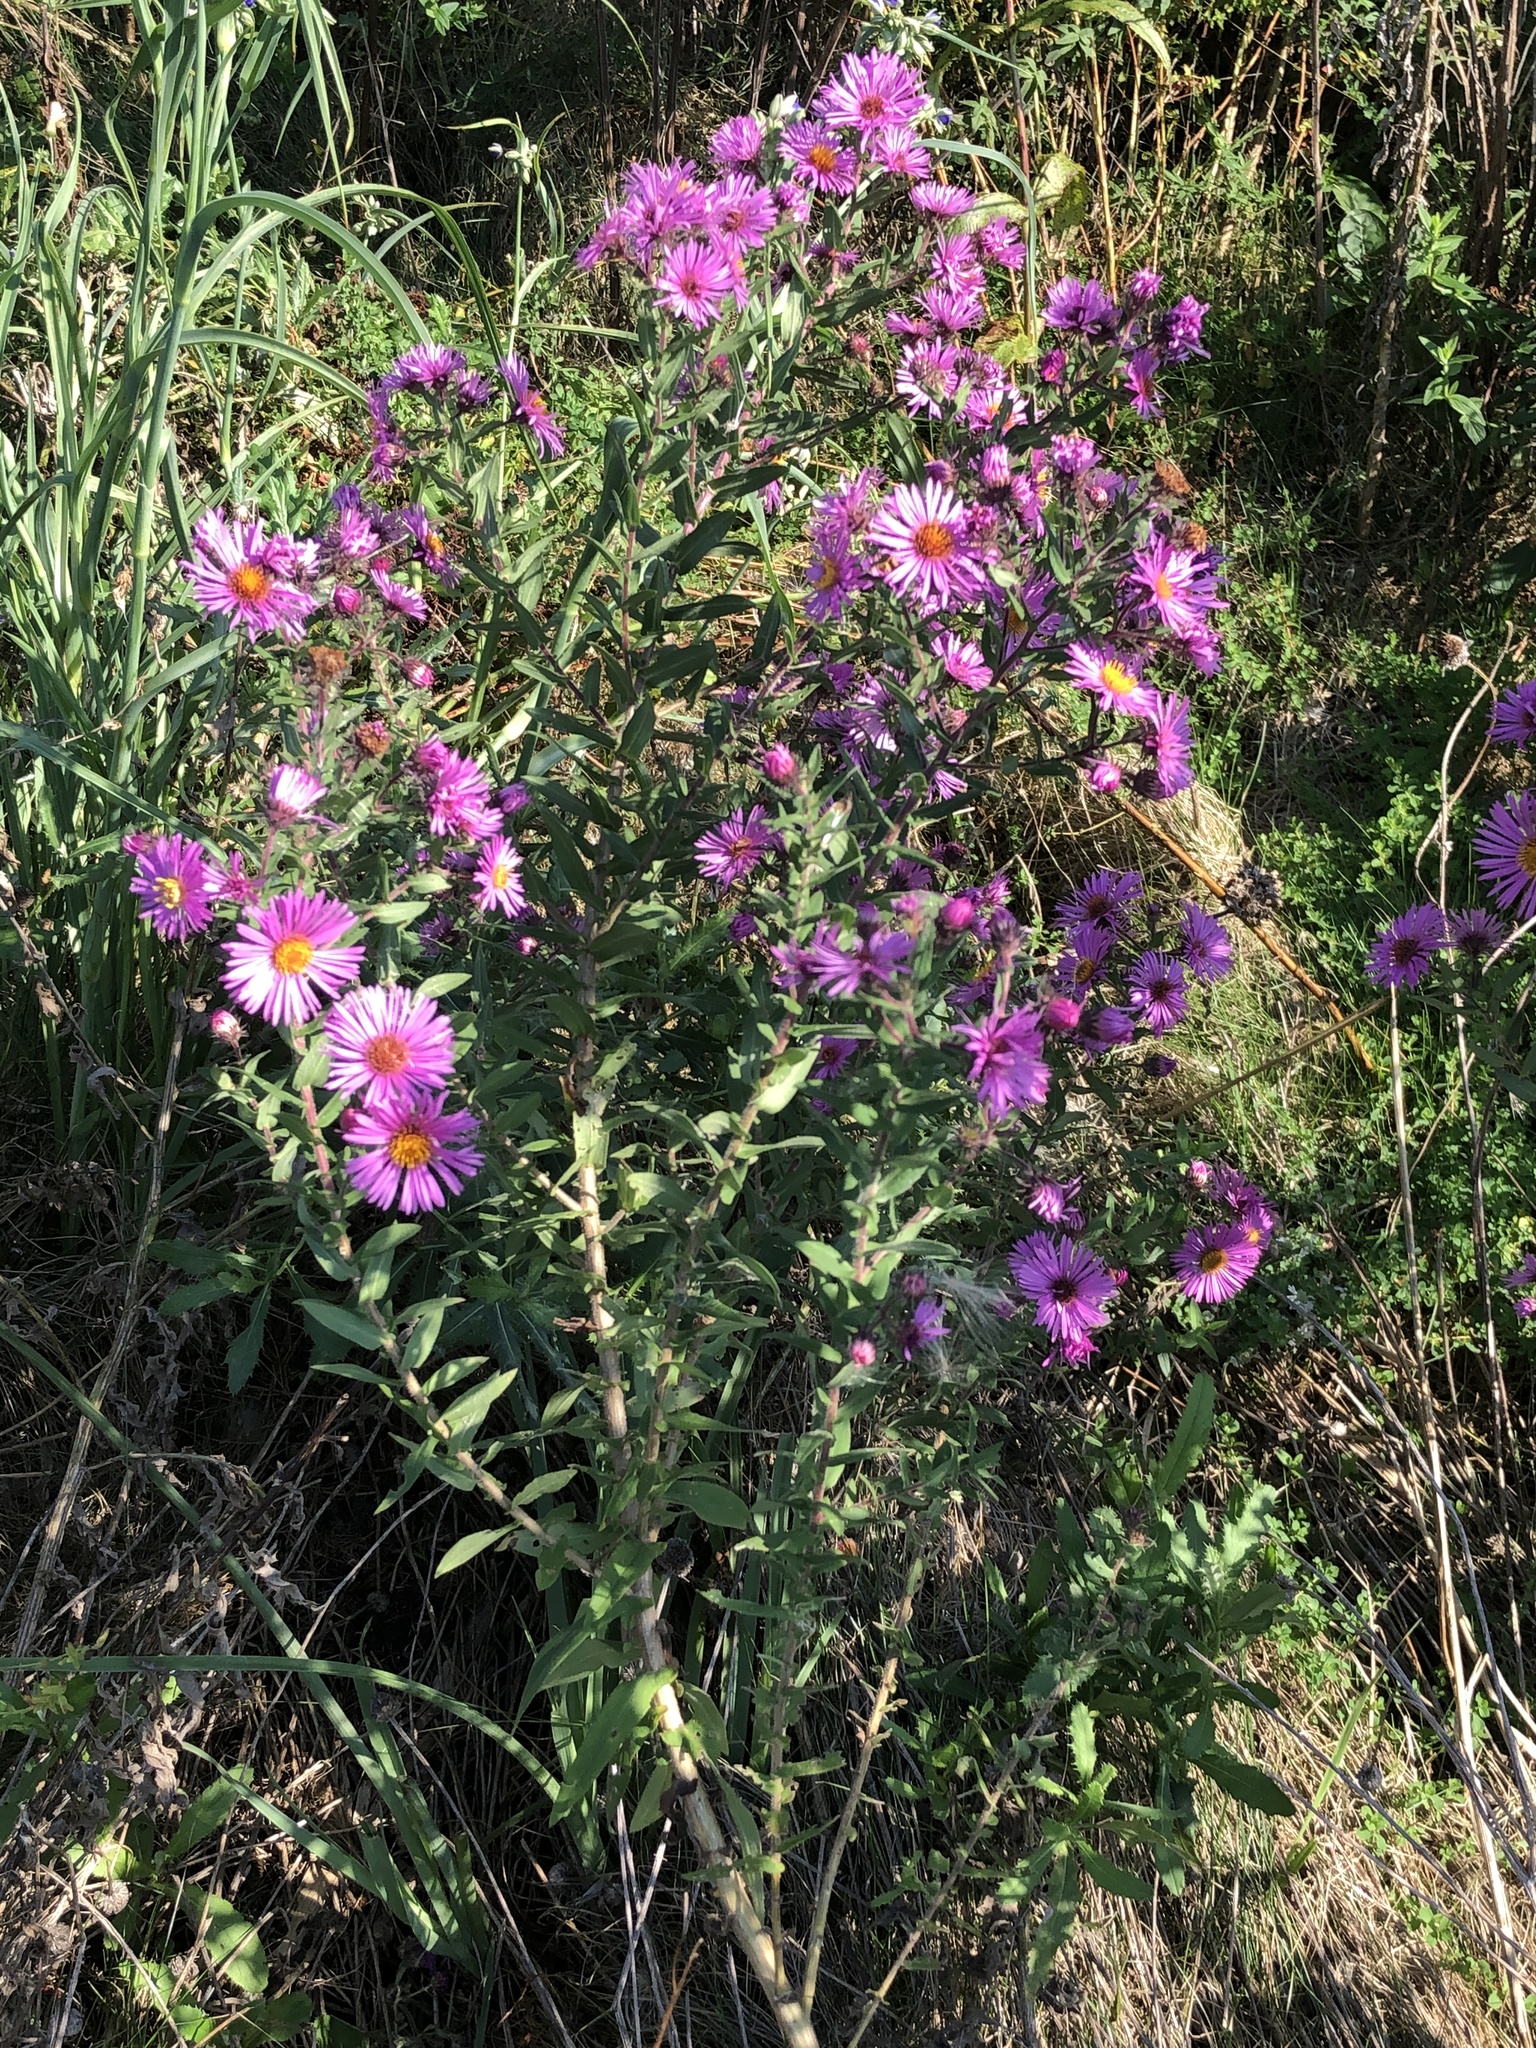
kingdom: Plantae
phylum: Tracheophyta
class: Magnoliopsida
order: Asterales
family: Asteraceae
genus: Symphyotrichum
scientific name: Symphyotrichum novae-angliae
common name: Michaelmas daisy
